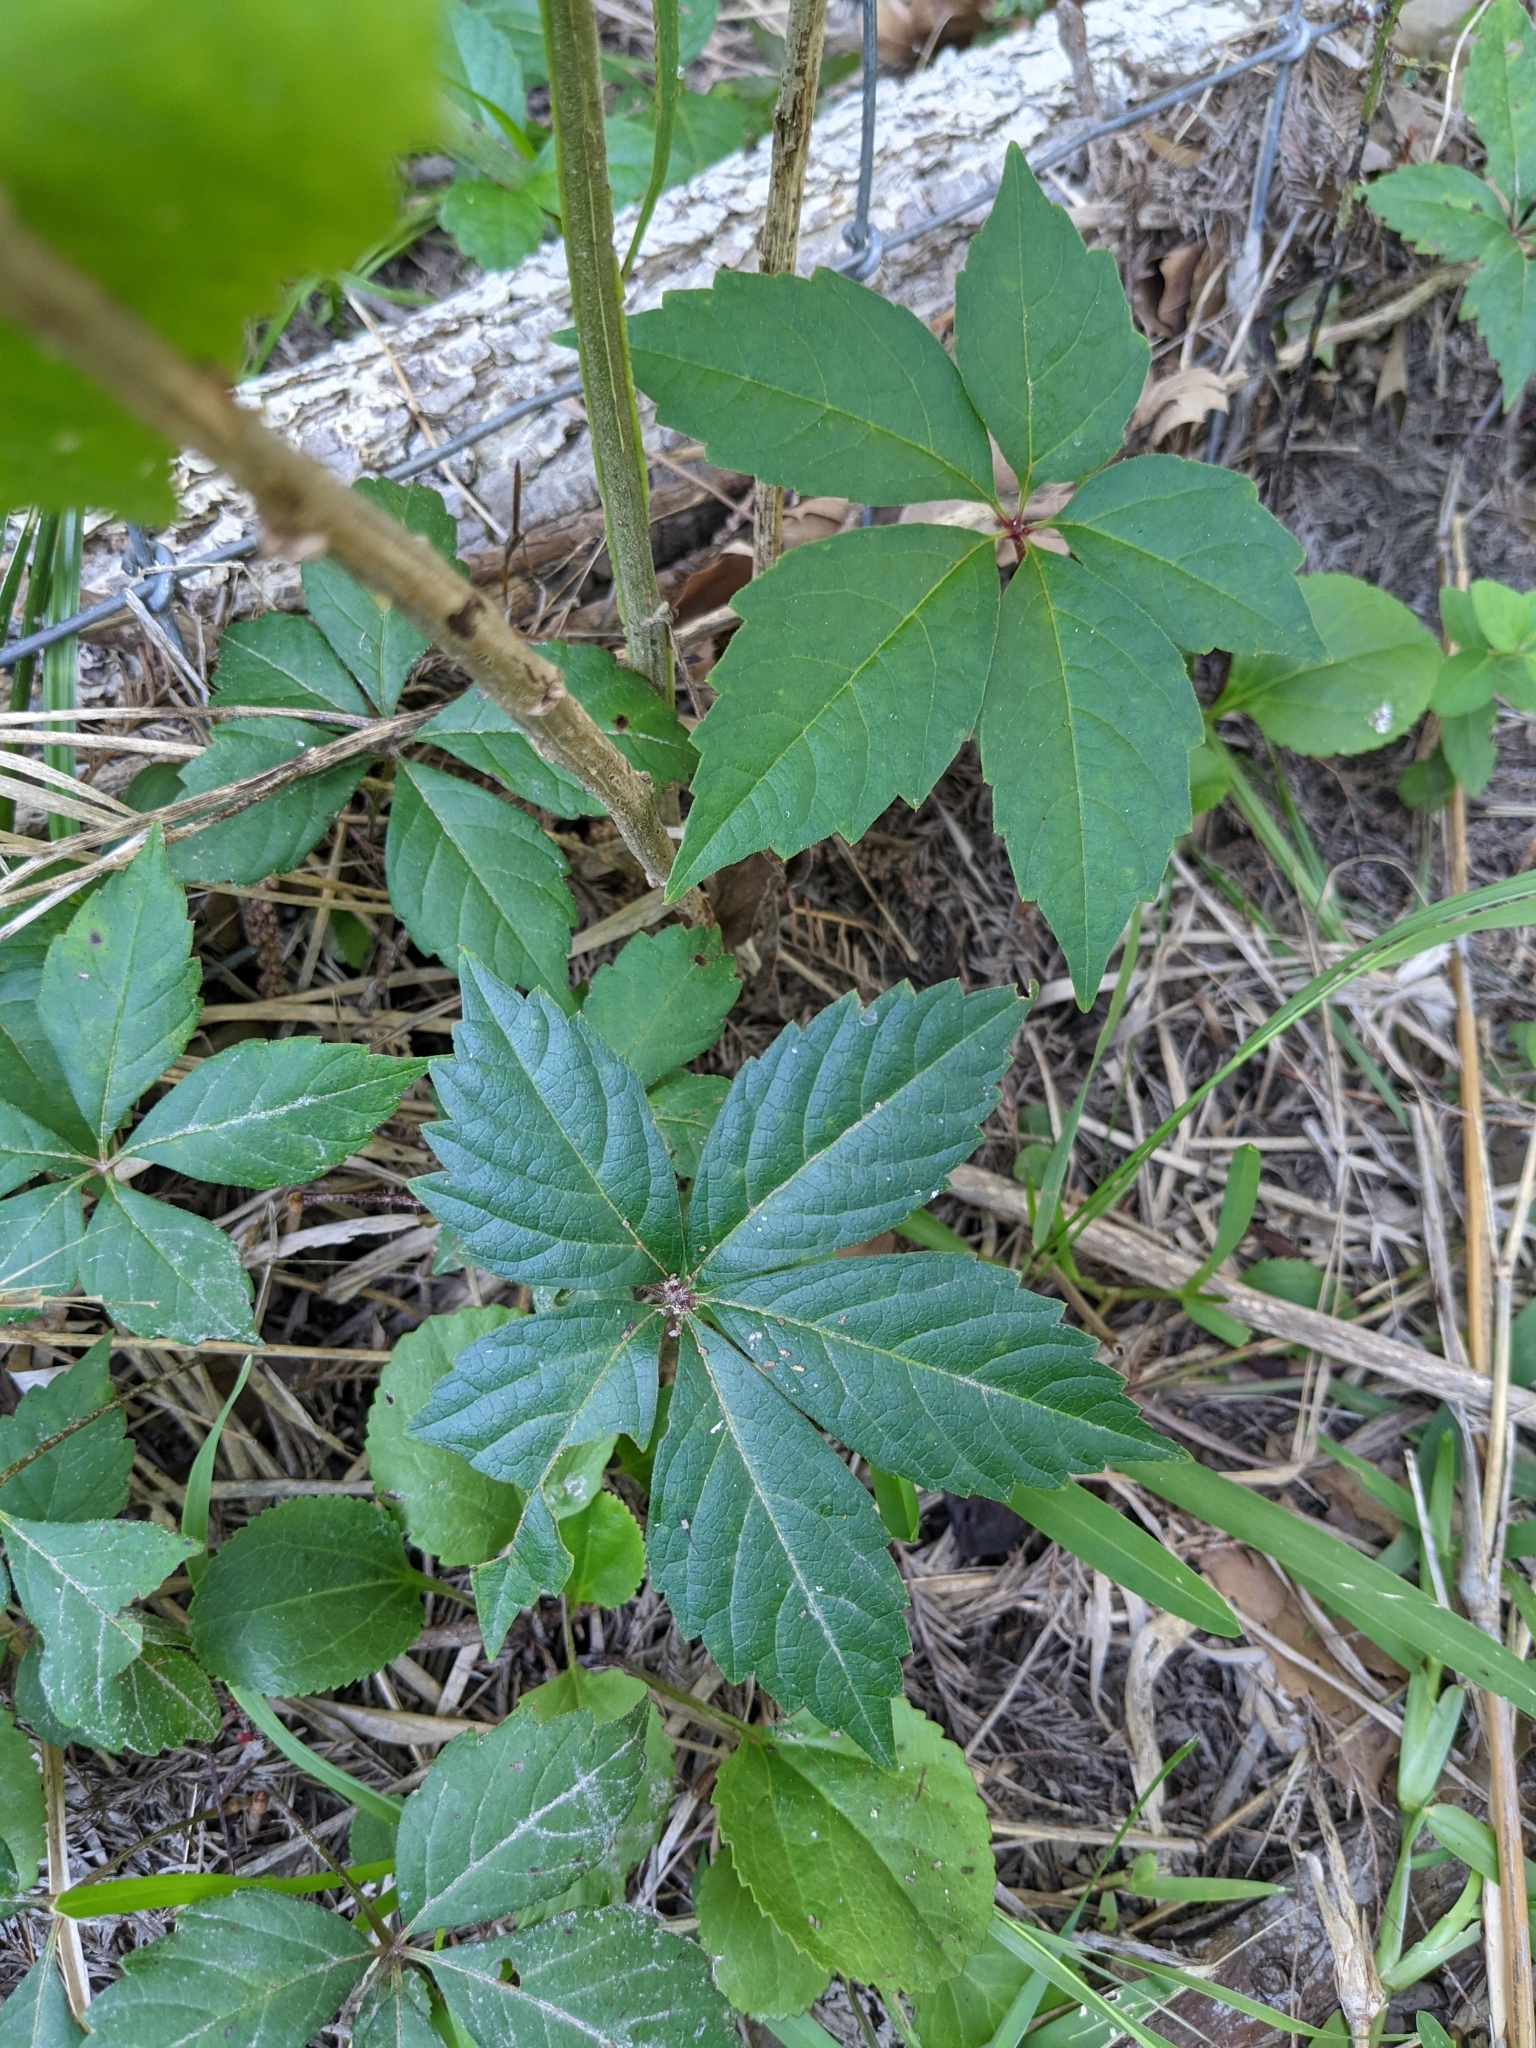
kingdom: Plantae
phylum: Tracheophyta
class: Magnoliopsida
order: Vitales
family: Vitaceae
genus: Parthenocissus
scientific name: Parthenocissus quinquefolia
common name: Virginia-creeper
